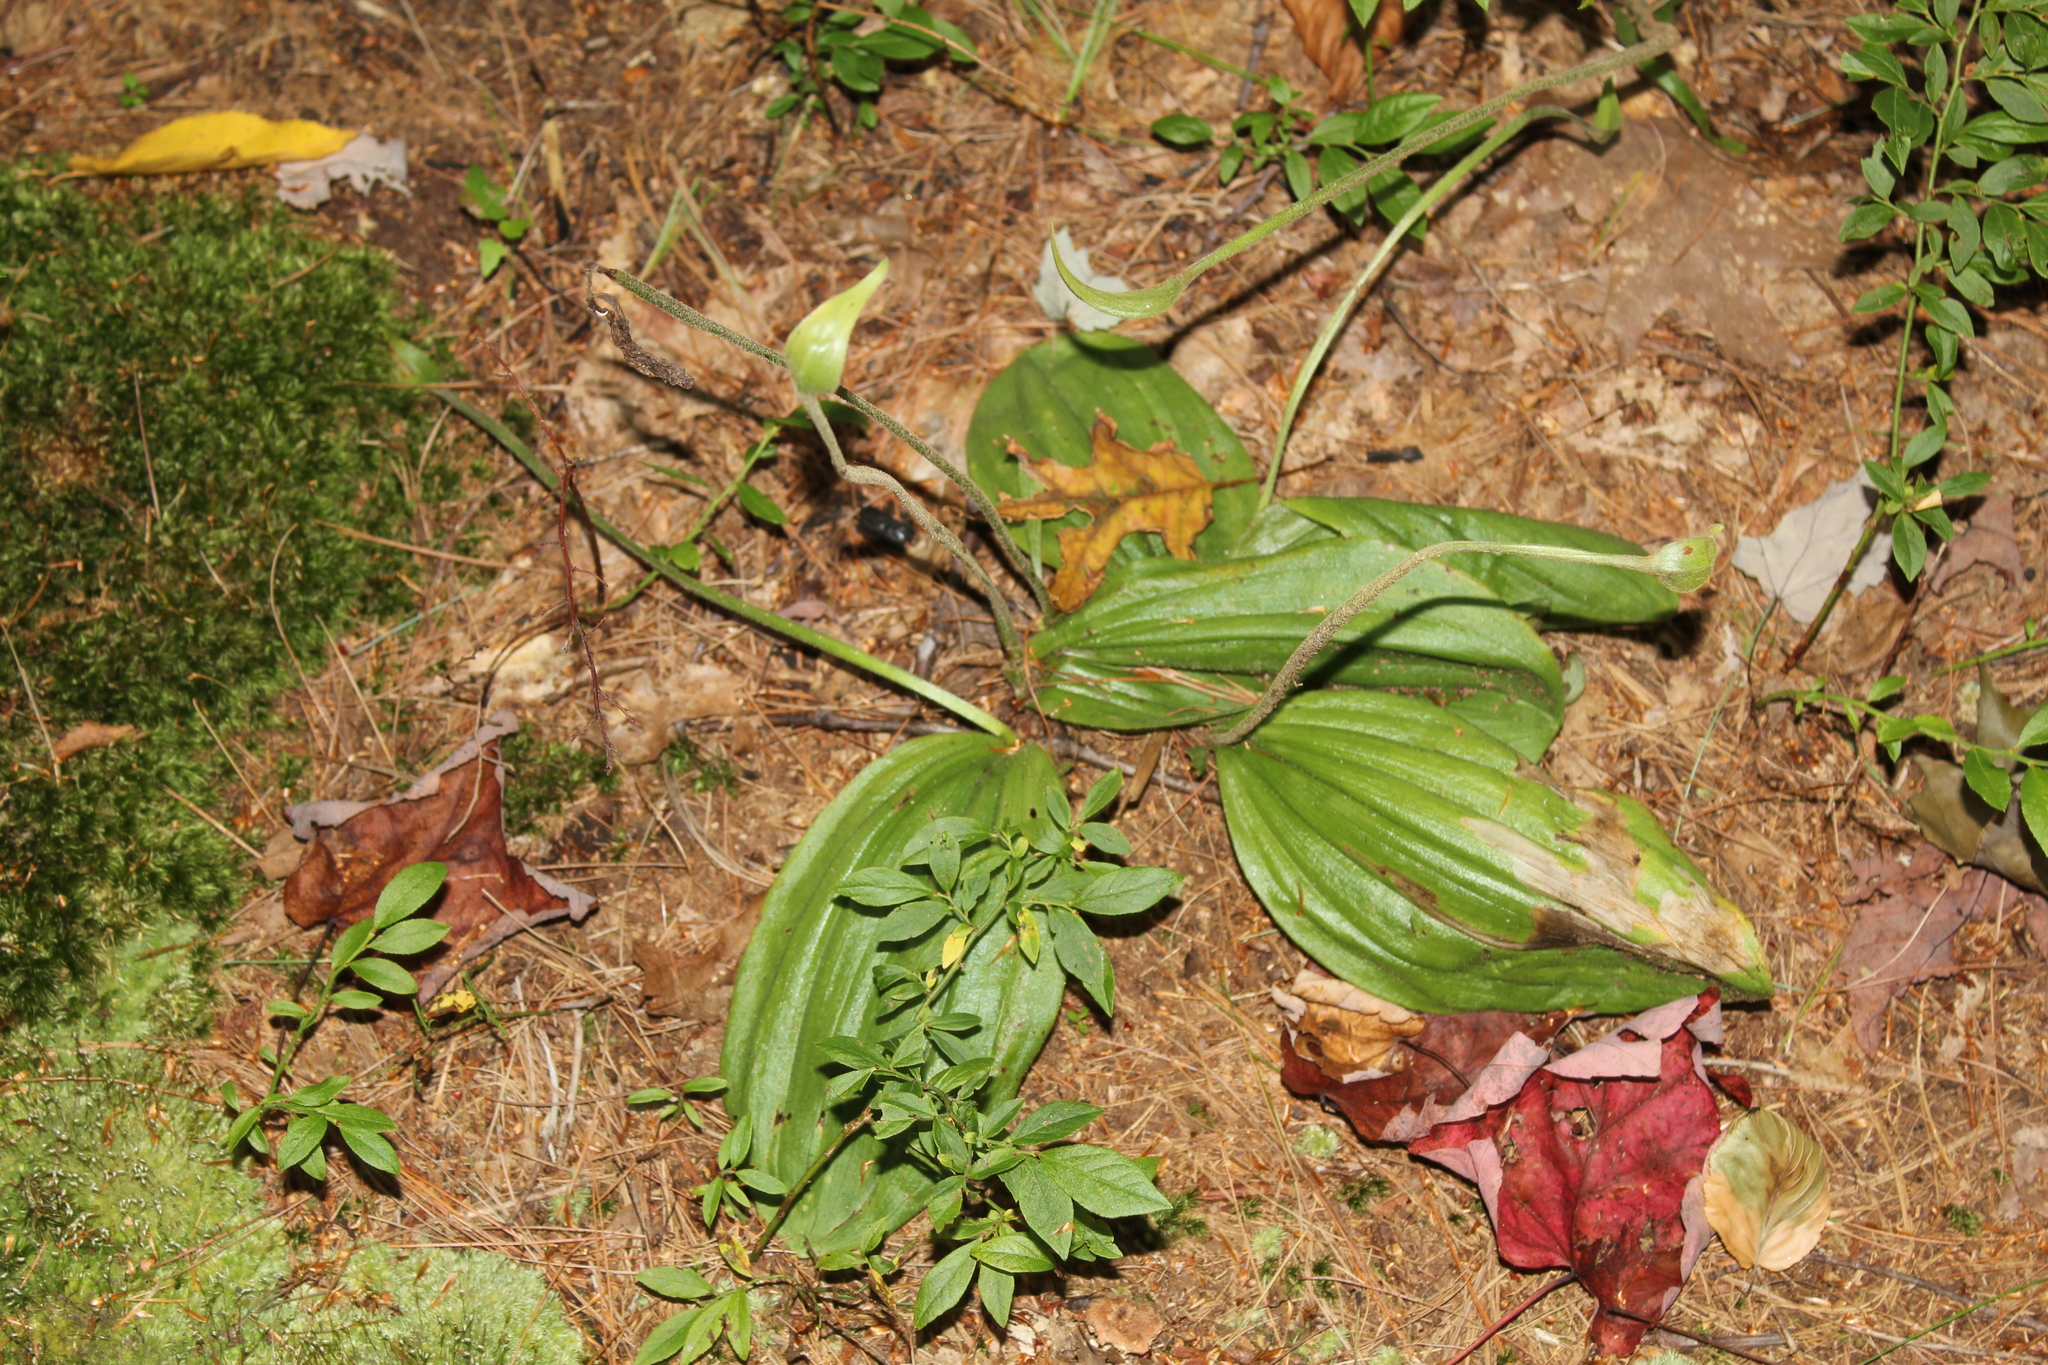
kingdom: Plantae
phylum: Tracheophyta
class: Liliopsida
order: Asparagales
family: Orchidaceae
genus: Cypripedium
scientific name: Cypripedium acaule
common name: Pink lady's-slipper
